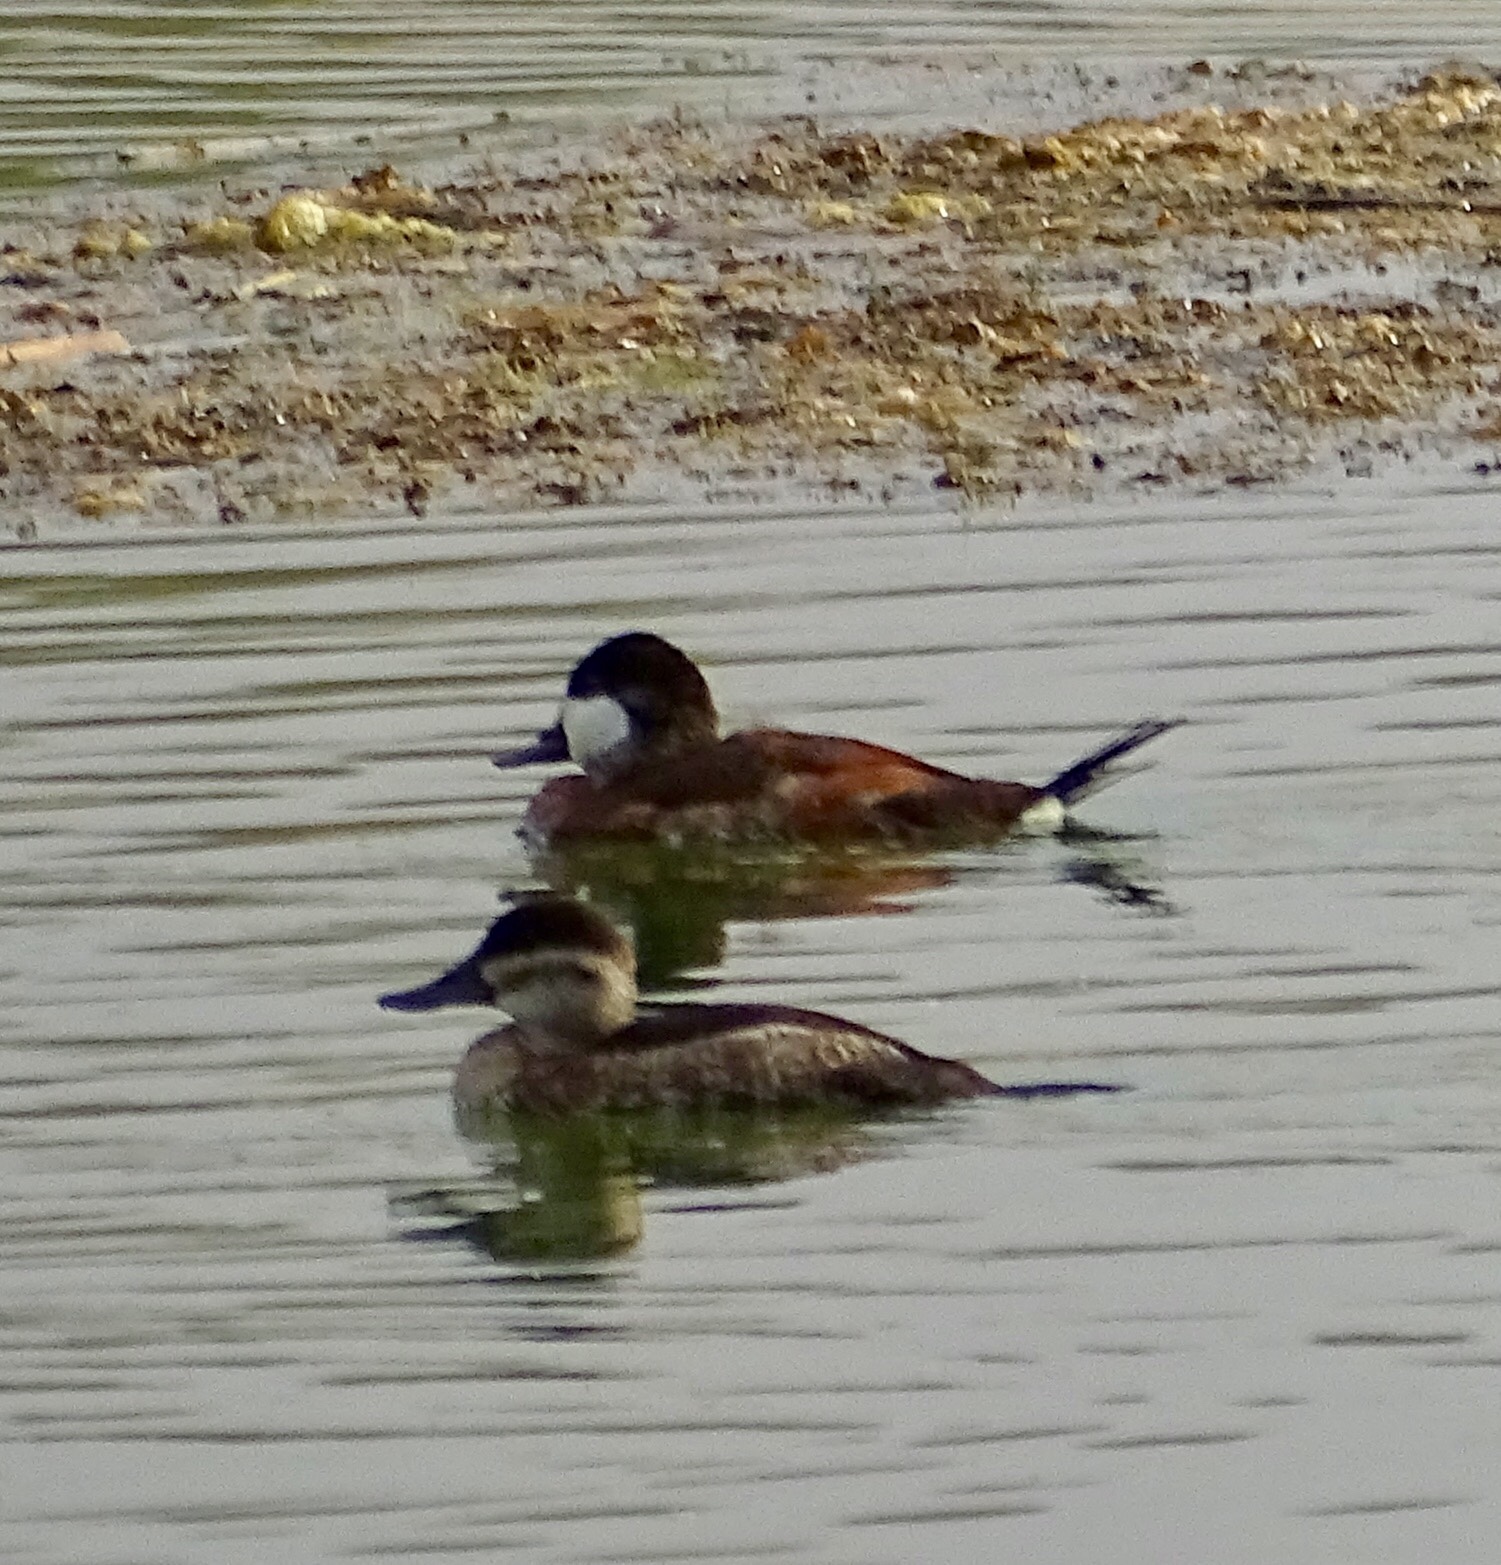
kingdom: Animalia
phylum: Chordata
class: Aves
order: Anseriformes
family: Anatidae
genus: Oxyura
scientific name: Oxyura jamaicensis
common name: Ruddy duck
